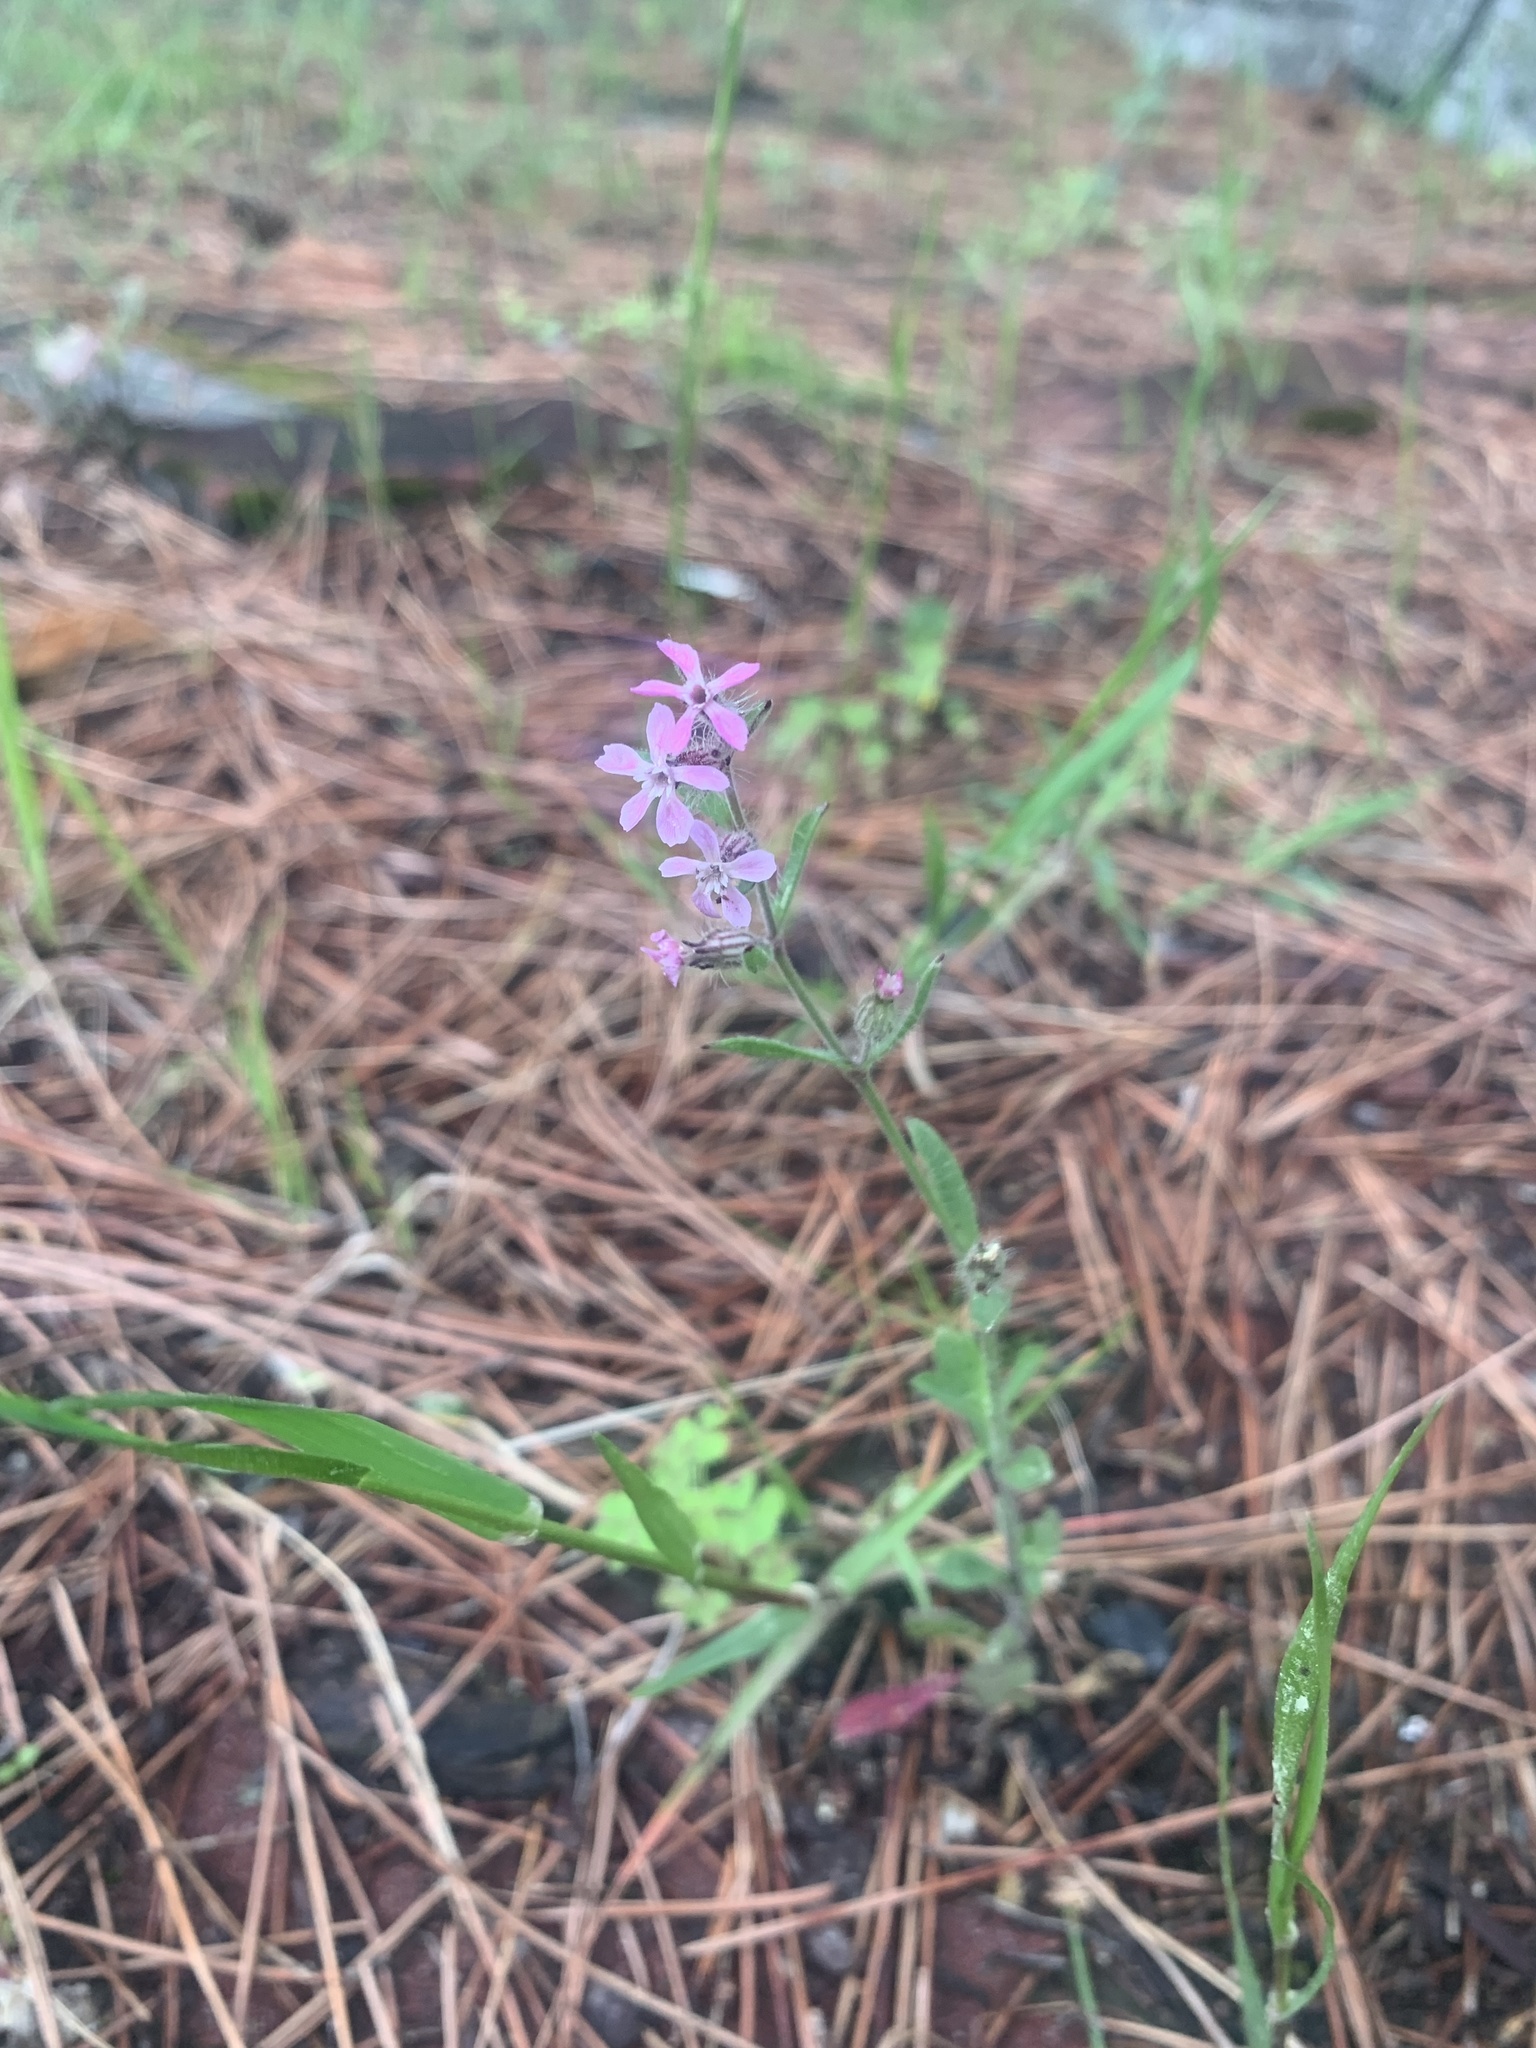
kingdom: Plantae
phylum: Tracheophyta
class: Magnoliopsida
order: Caryophyllales
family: Caryophyllaceae
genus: Silene
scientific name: Silene gallica
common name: Small-flowered catchfly
